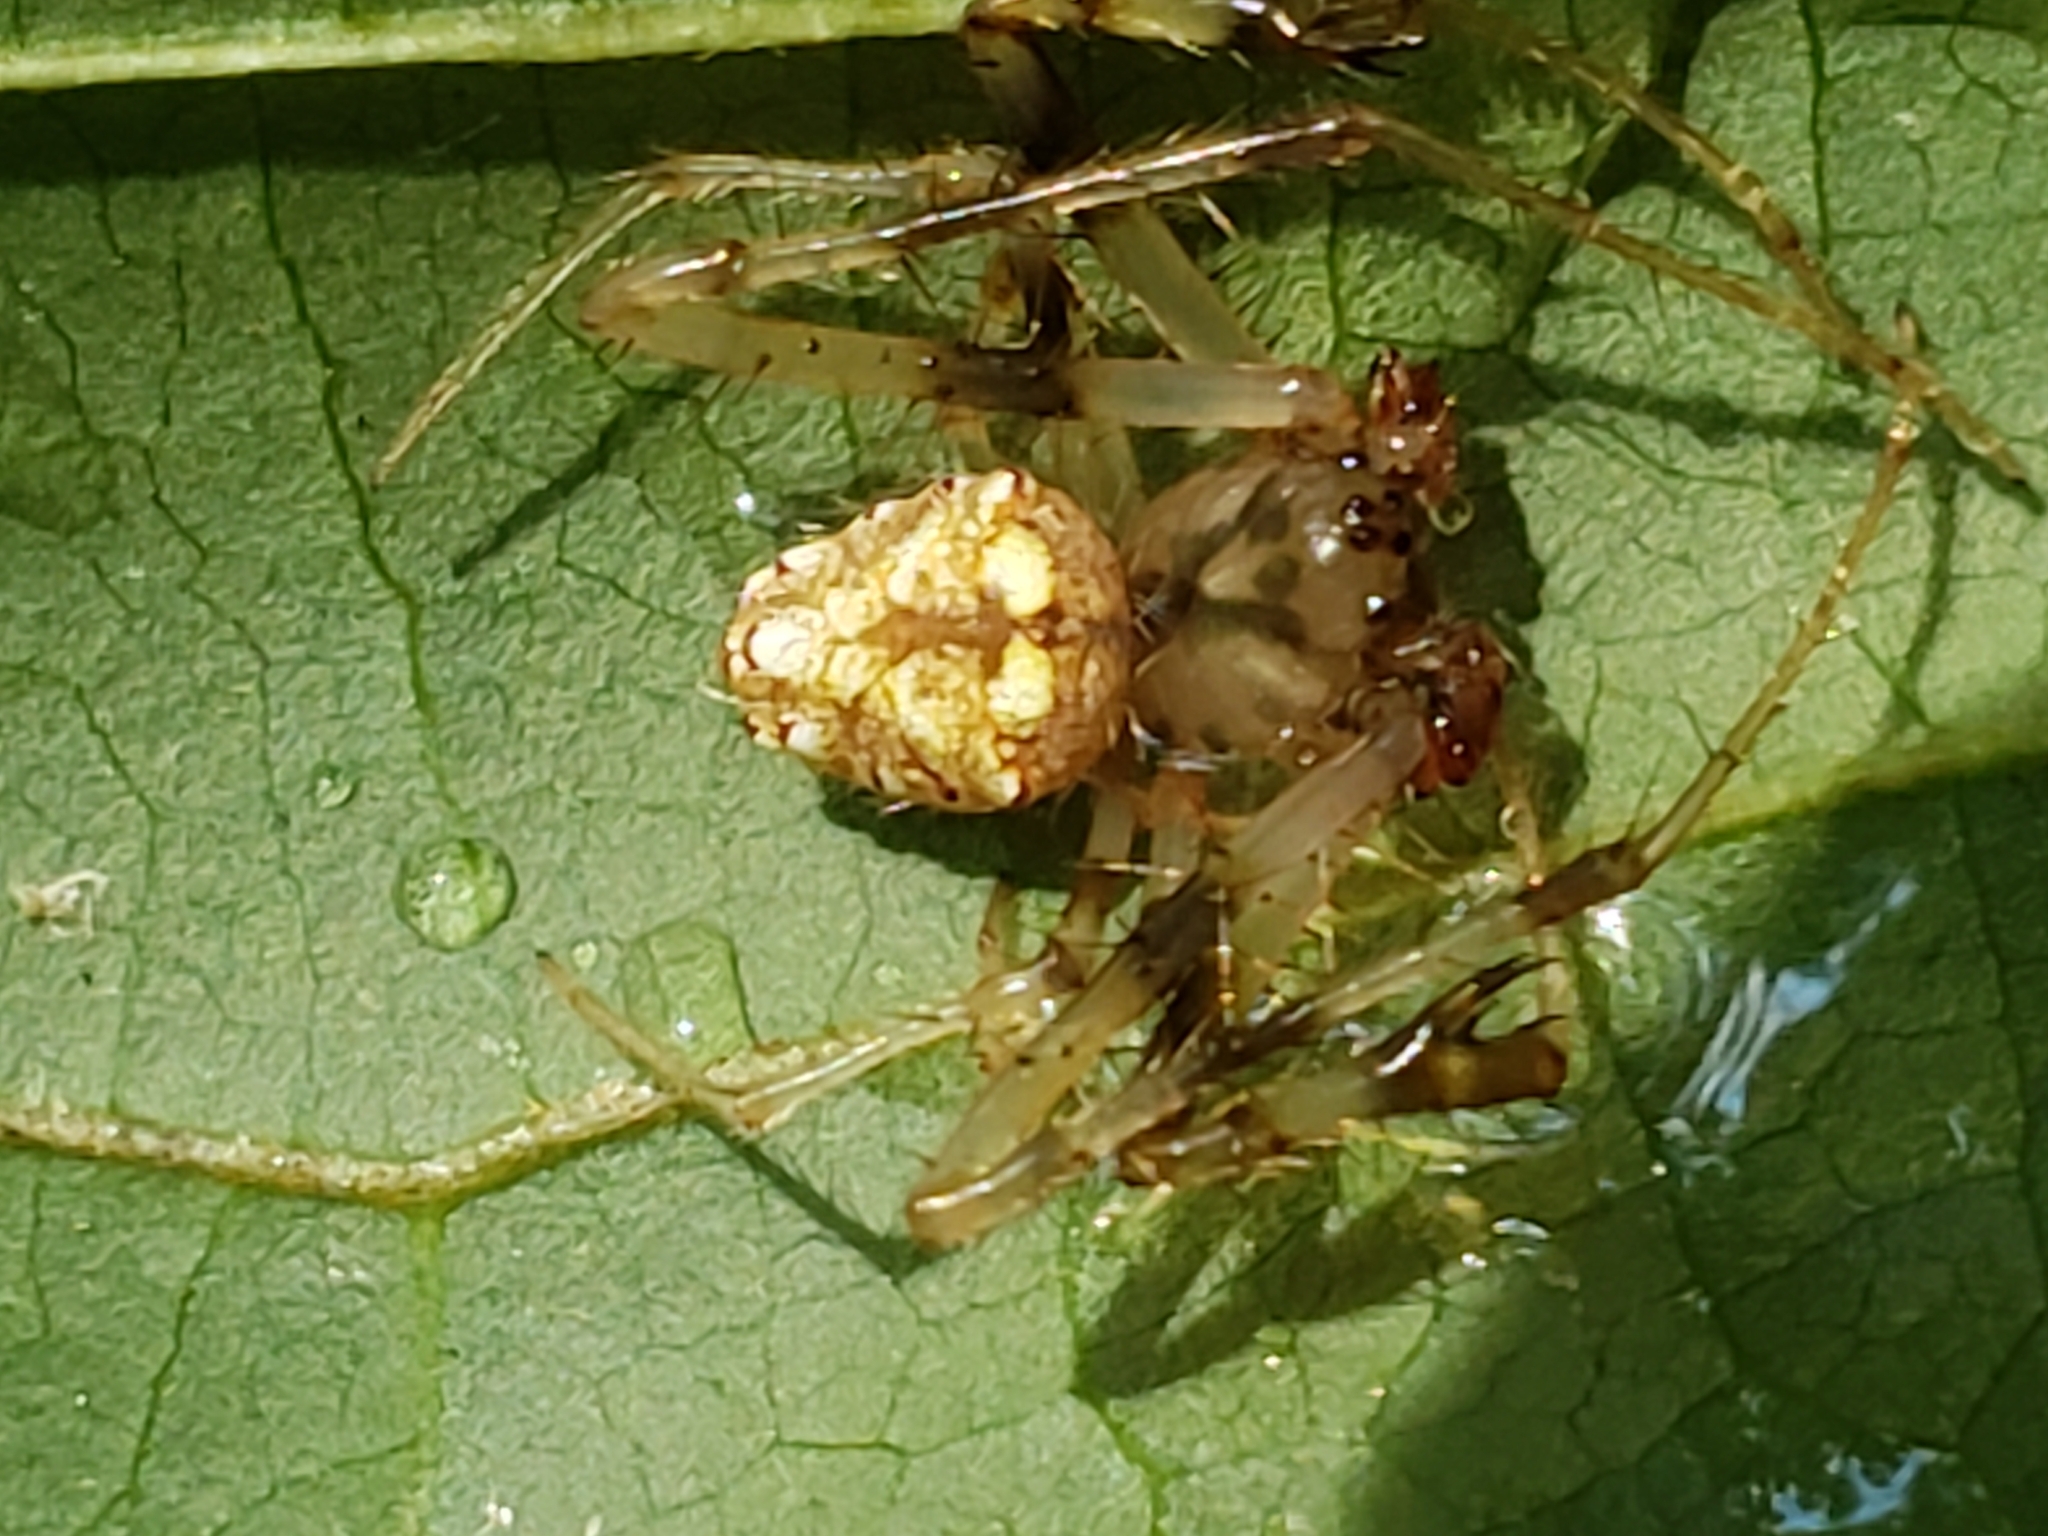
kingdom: Animalia
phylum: Arthropoda
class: Arachnida
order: Araneae
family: Araneidae
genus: Verrucosa
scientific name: Verrucosa arenata
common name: Orb weavers
